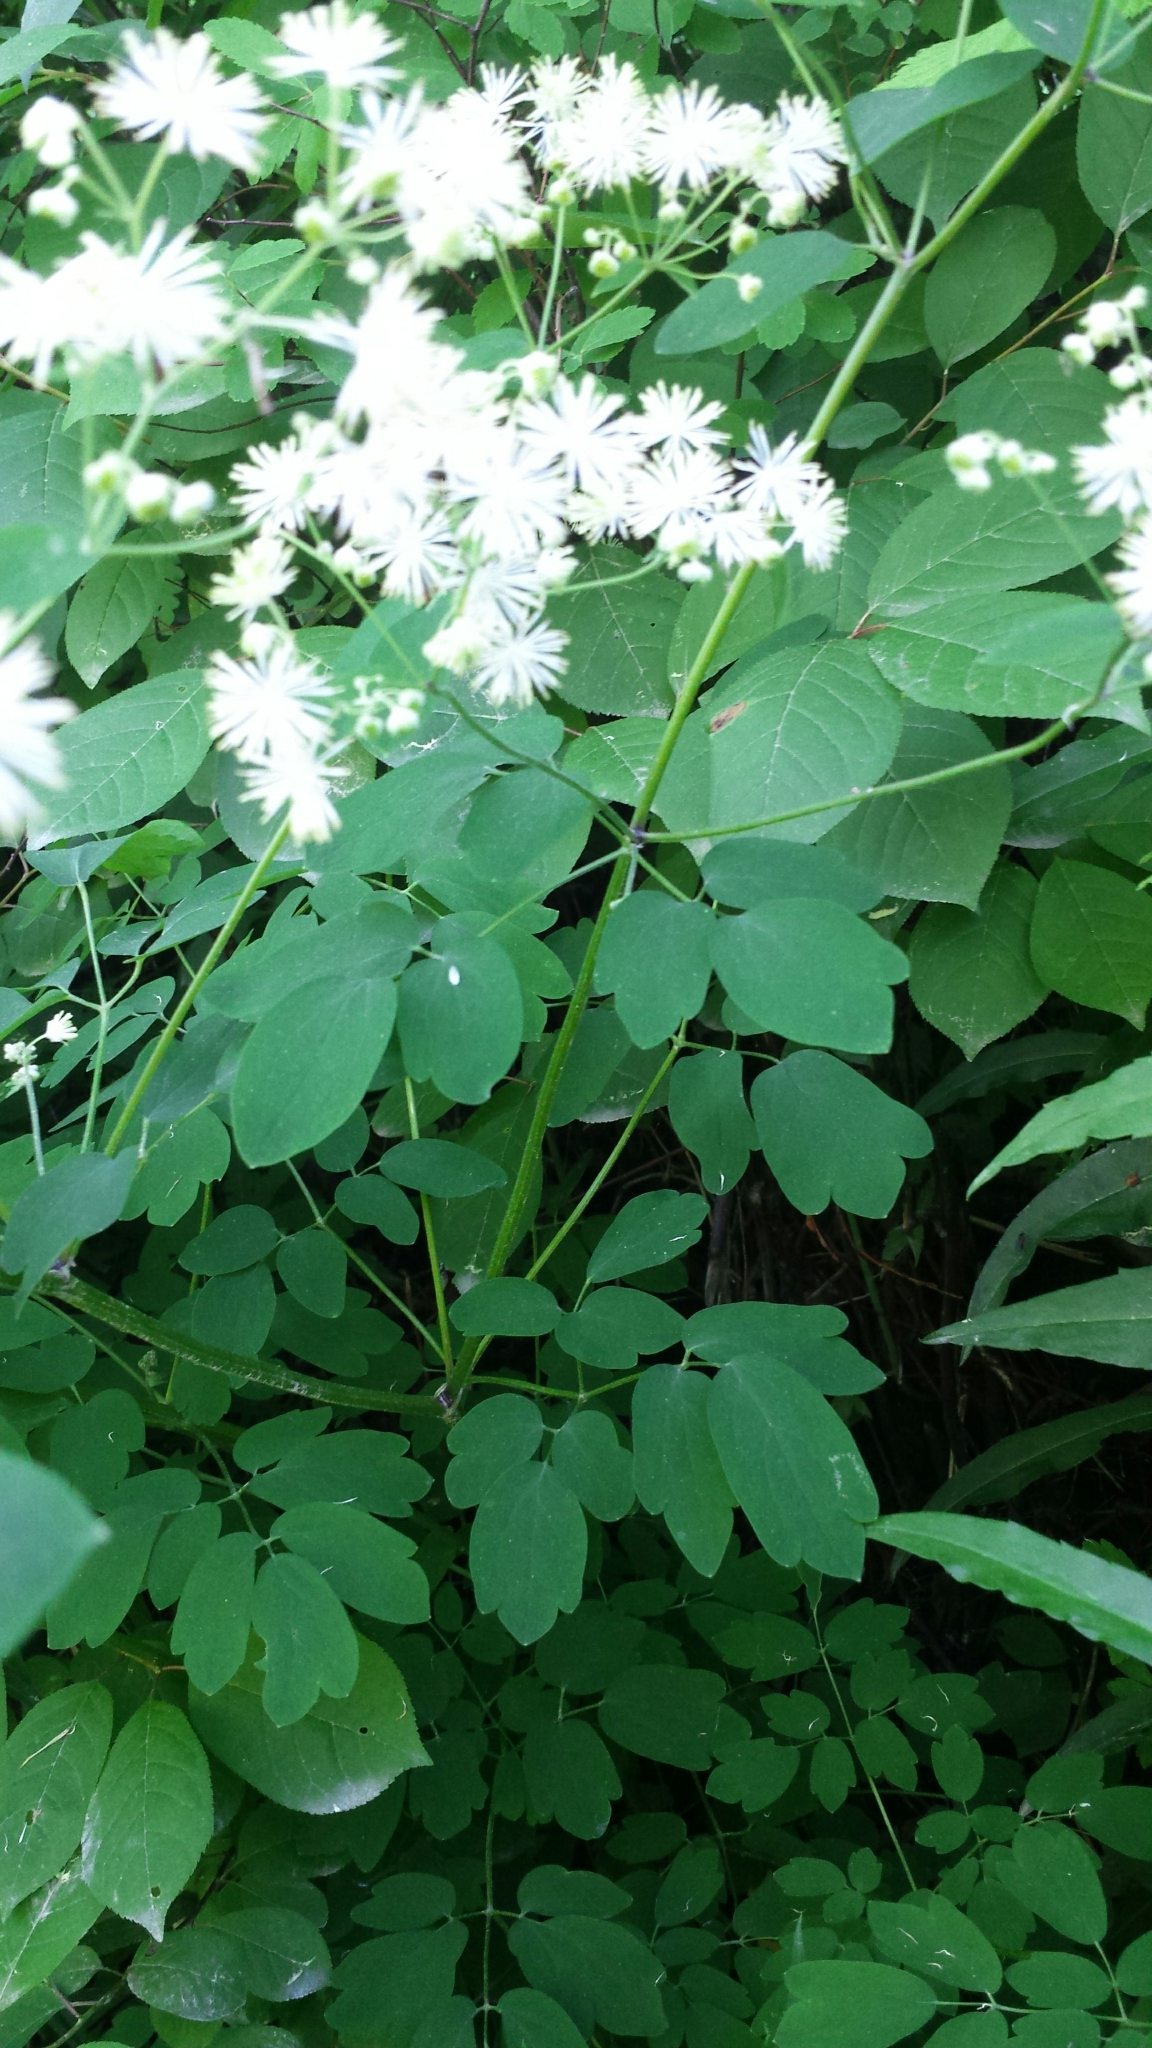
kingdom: Plantae
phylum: Tracheophyta
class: Magnoliopsida
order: Ranunculales
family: Ranunculaceae
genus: Thalictrum
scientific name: Thalictrum pubescens
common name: King-of-the-meadow
